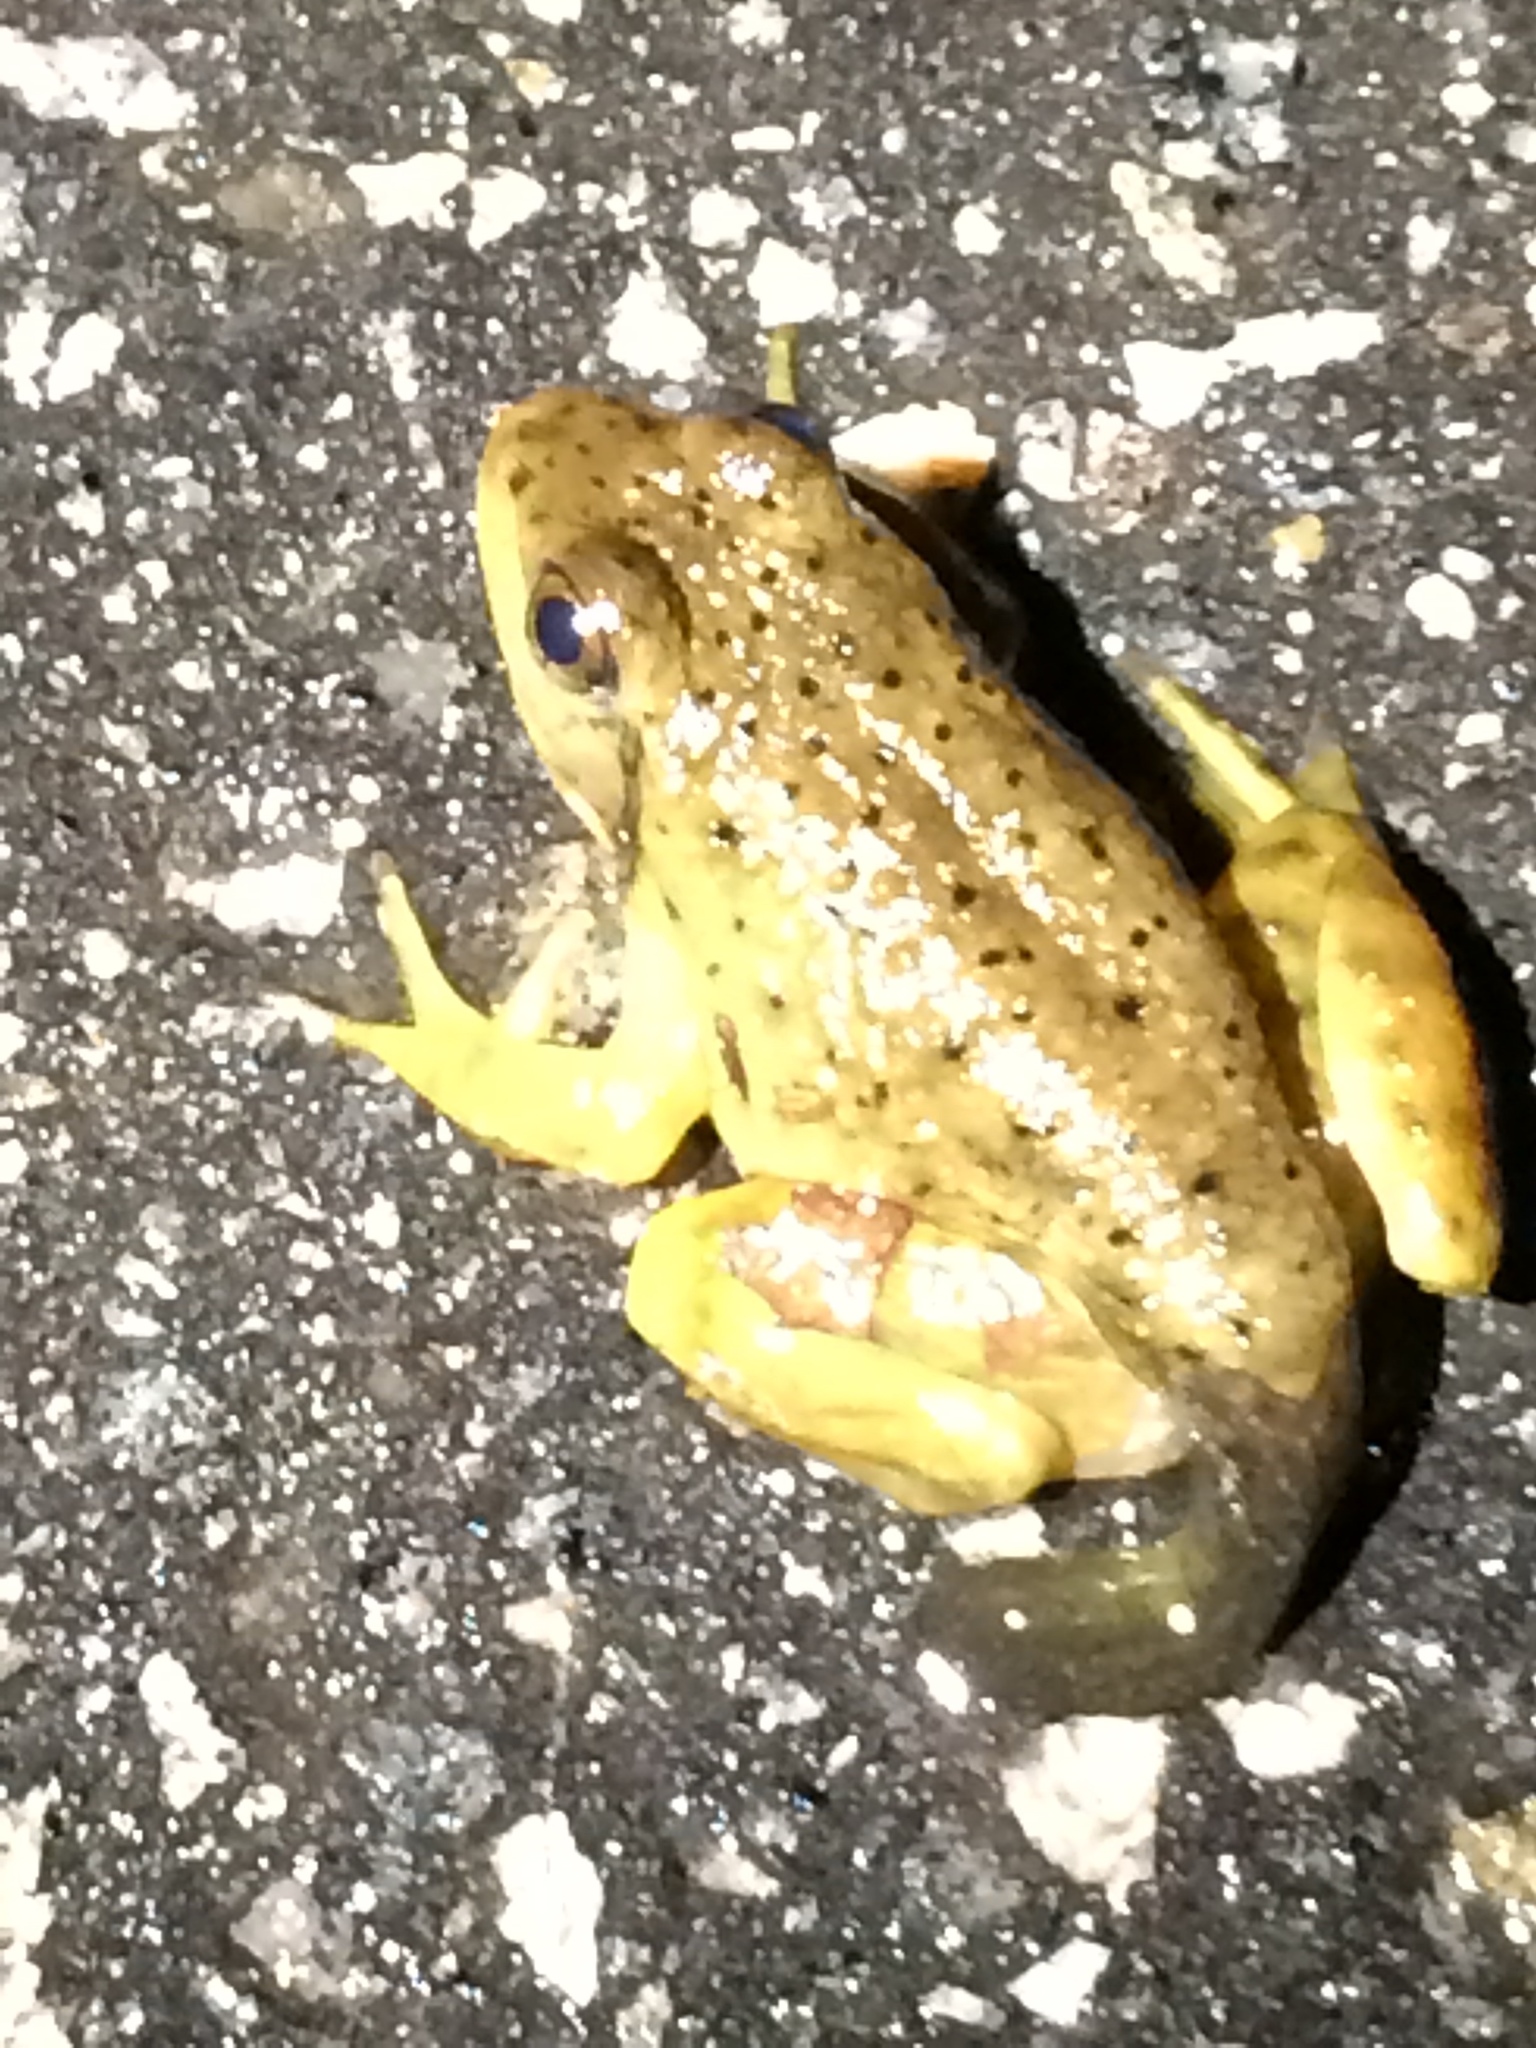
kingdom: Animalia
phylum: Chordata
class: Amphibia
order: Anura
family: Ranidae
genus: Lithobates
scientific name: Lithobates catesbeianus
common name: American bullfrog
